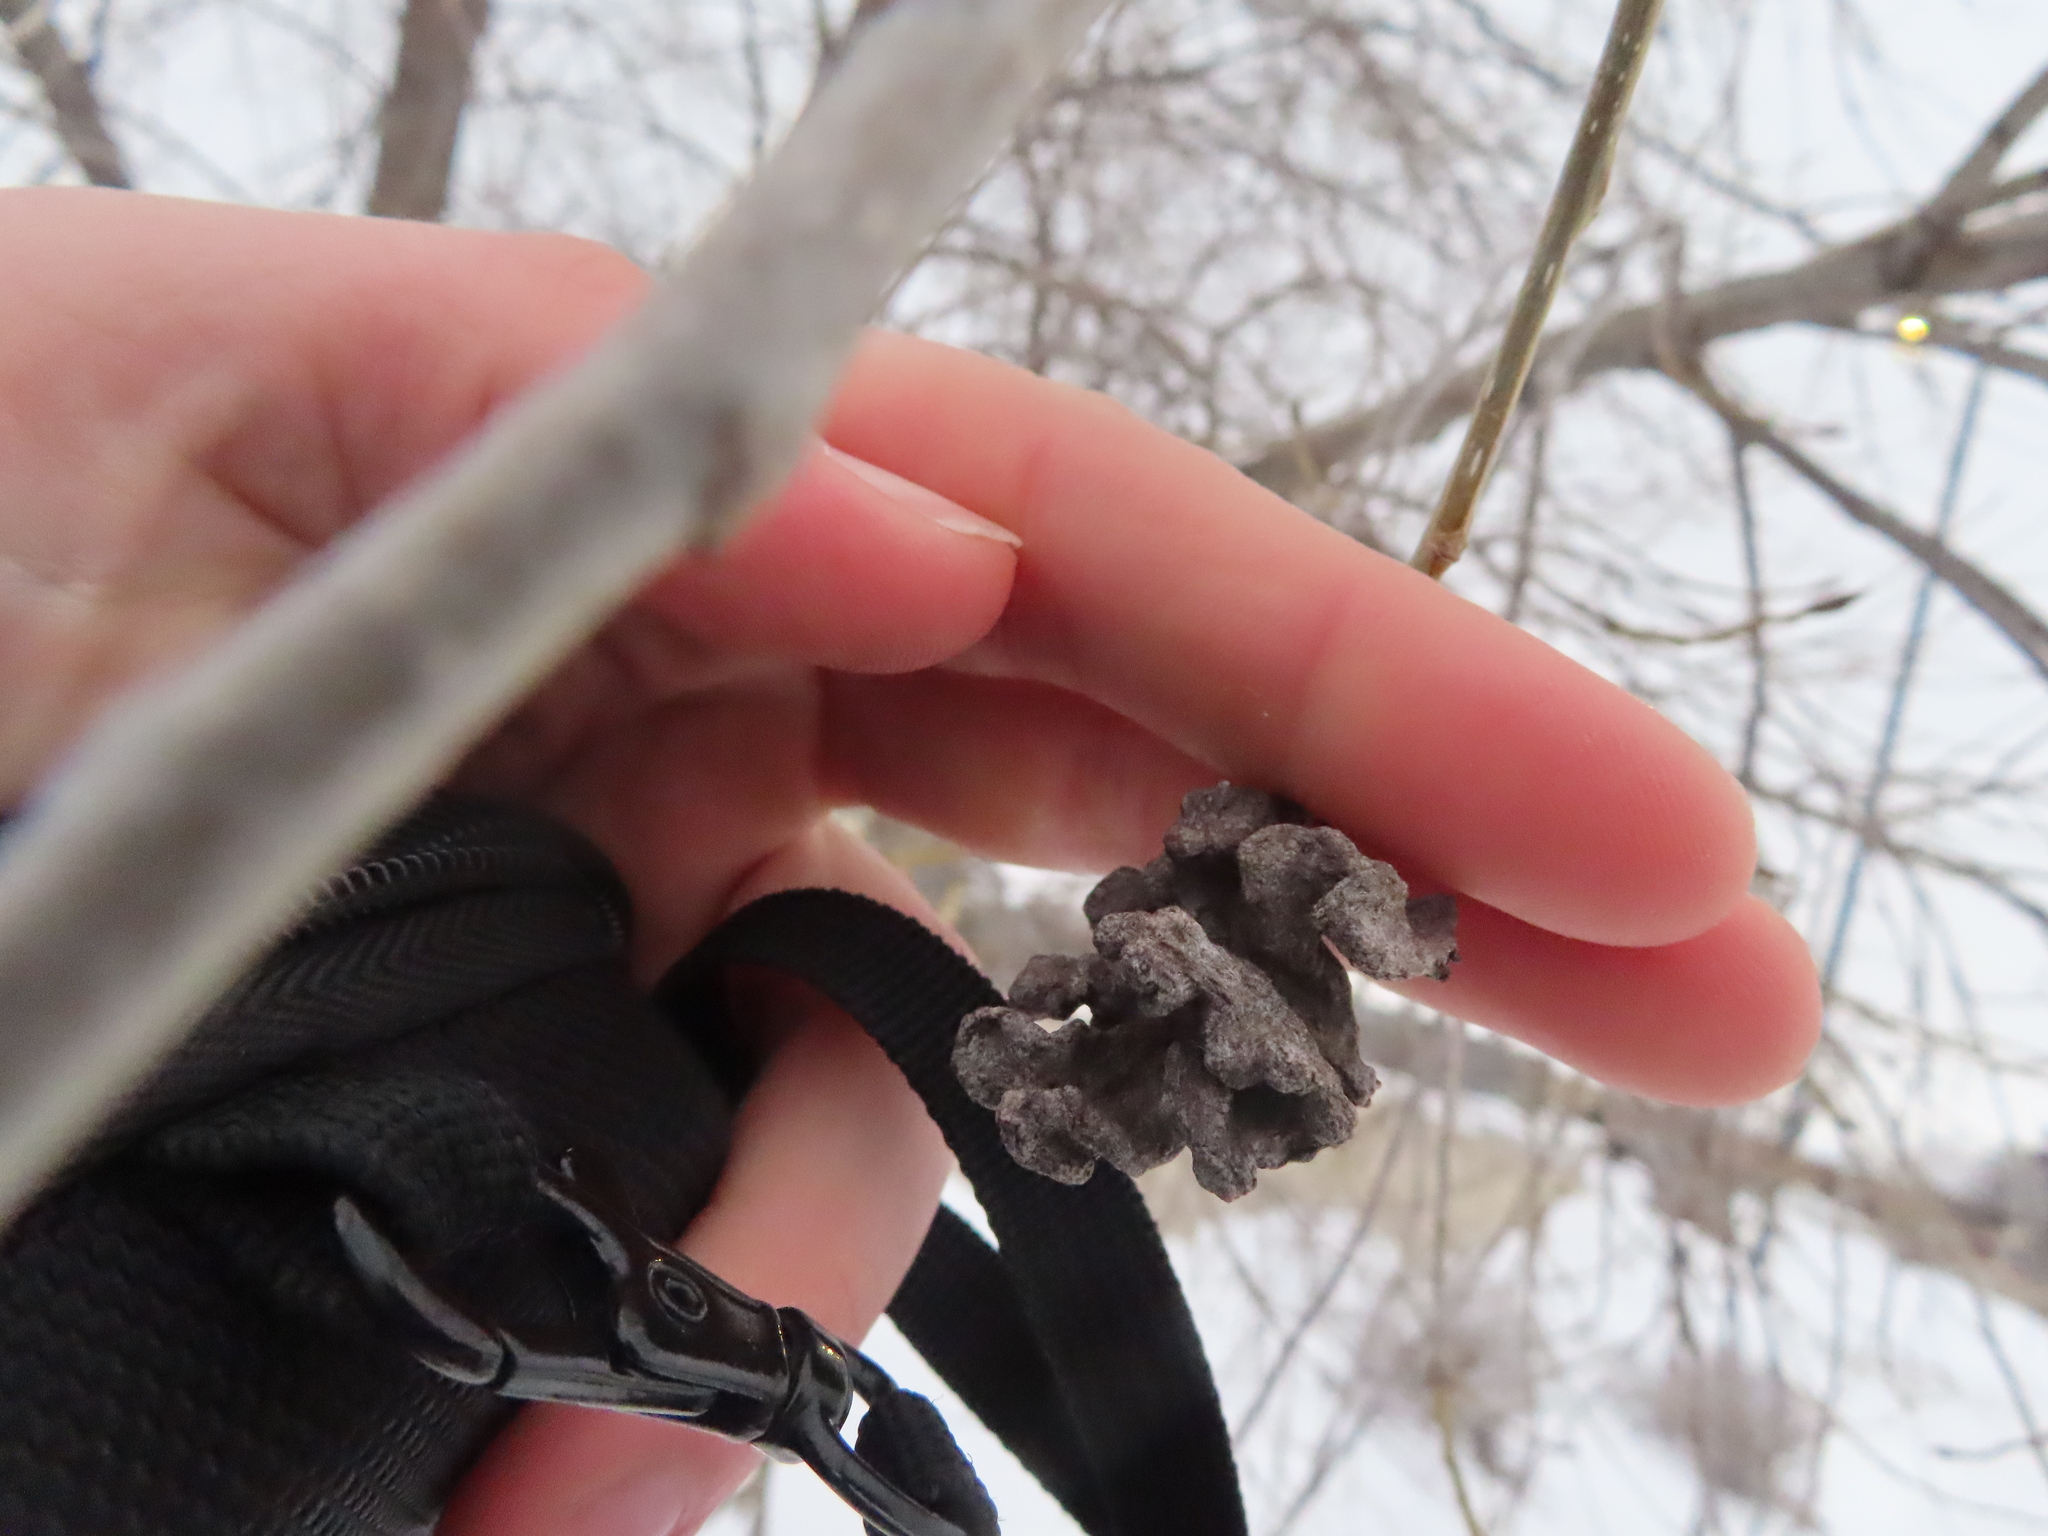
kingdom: Animalia
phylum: Arthropoda
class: Insecta
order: Hemiptera
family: Aphididae
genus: Mordwilkoja
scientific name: Mordwilkoja vagabunda
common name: Poplar vagabond aphid
